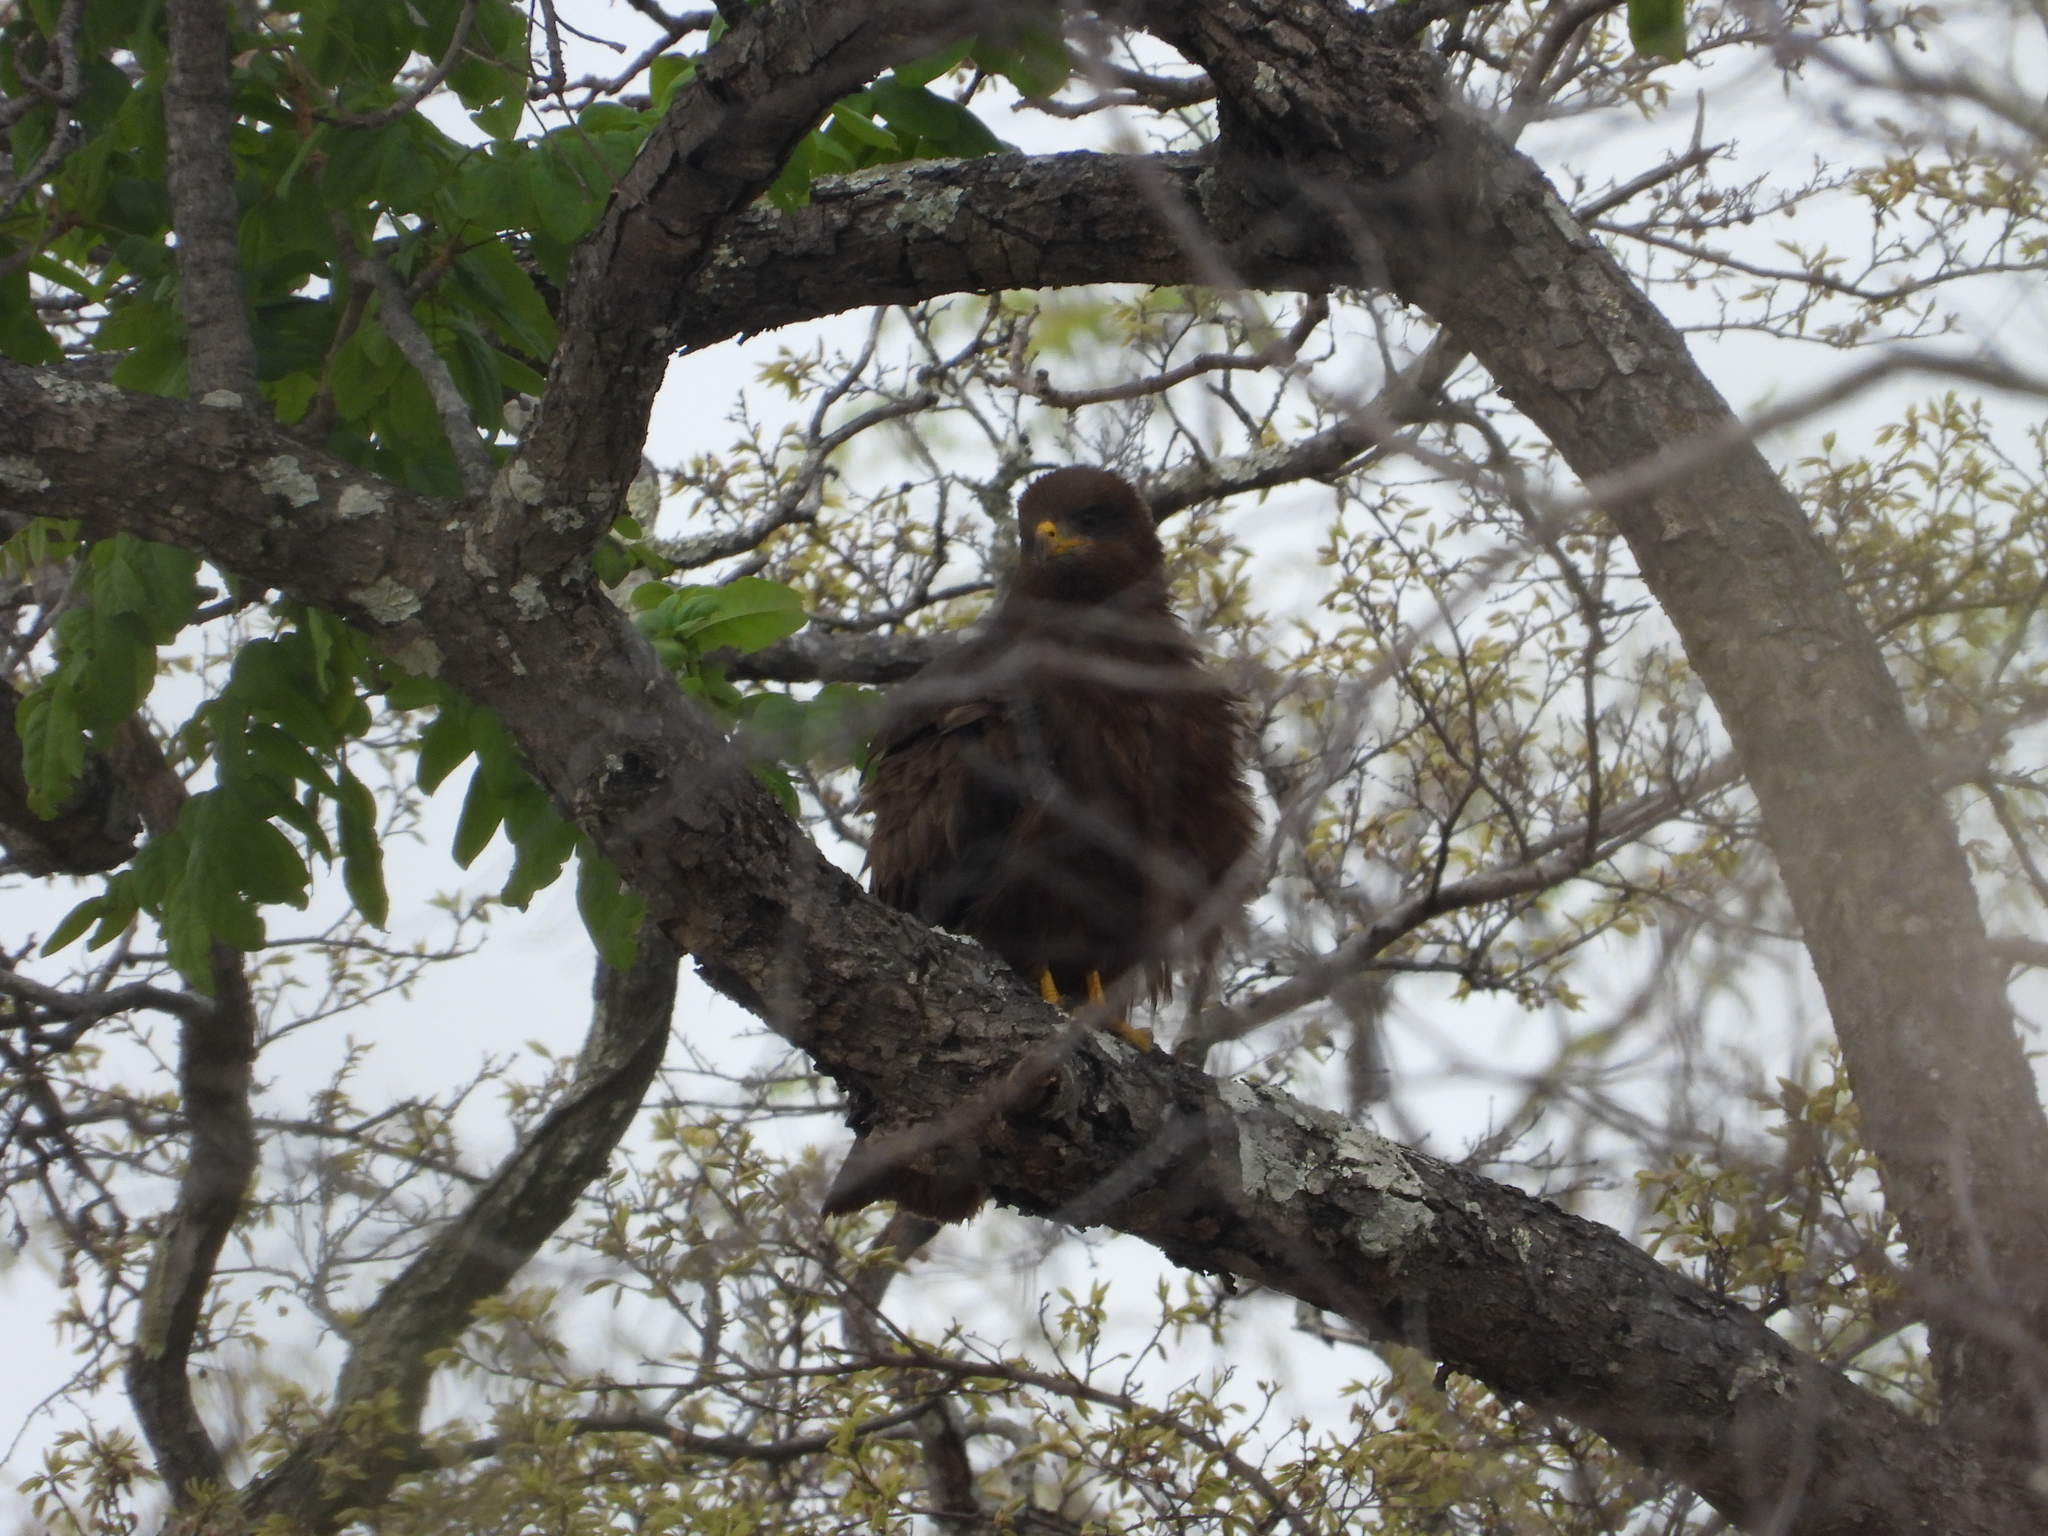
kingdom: Animalia
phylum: Chordata
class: Aves
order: Accipitriformes
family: Accipitridae
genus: Milvus
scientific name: Milvus migrans
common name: Black kite
